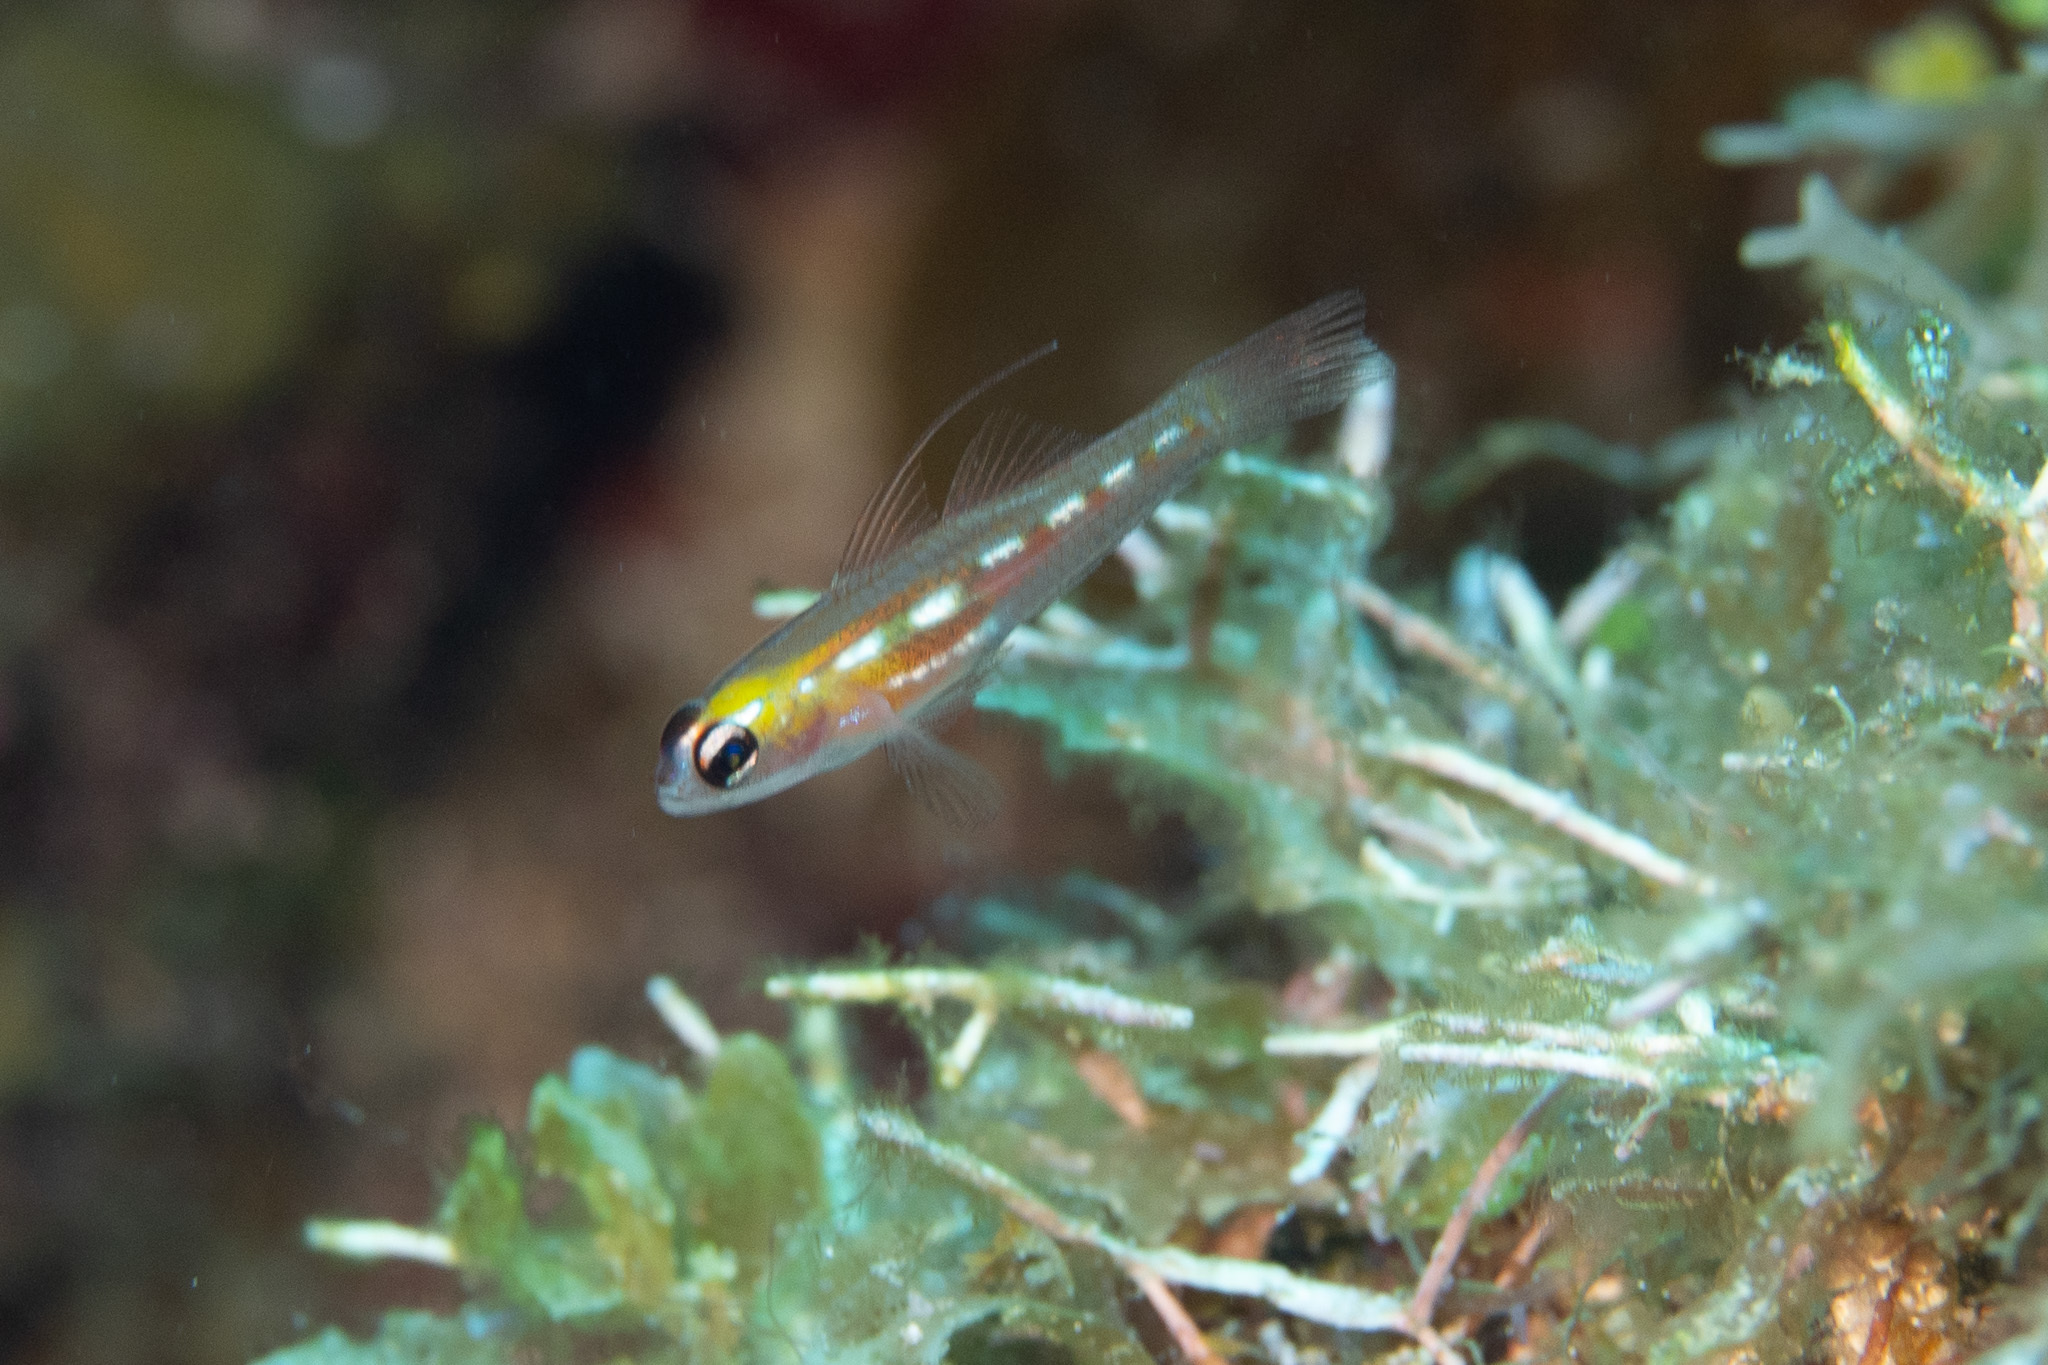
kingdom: Animalia
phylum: Chordata
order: Perciformes
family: Gobiidae
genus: Coryphopterus
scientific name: Coryphopterus personatus
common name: Masked goby
